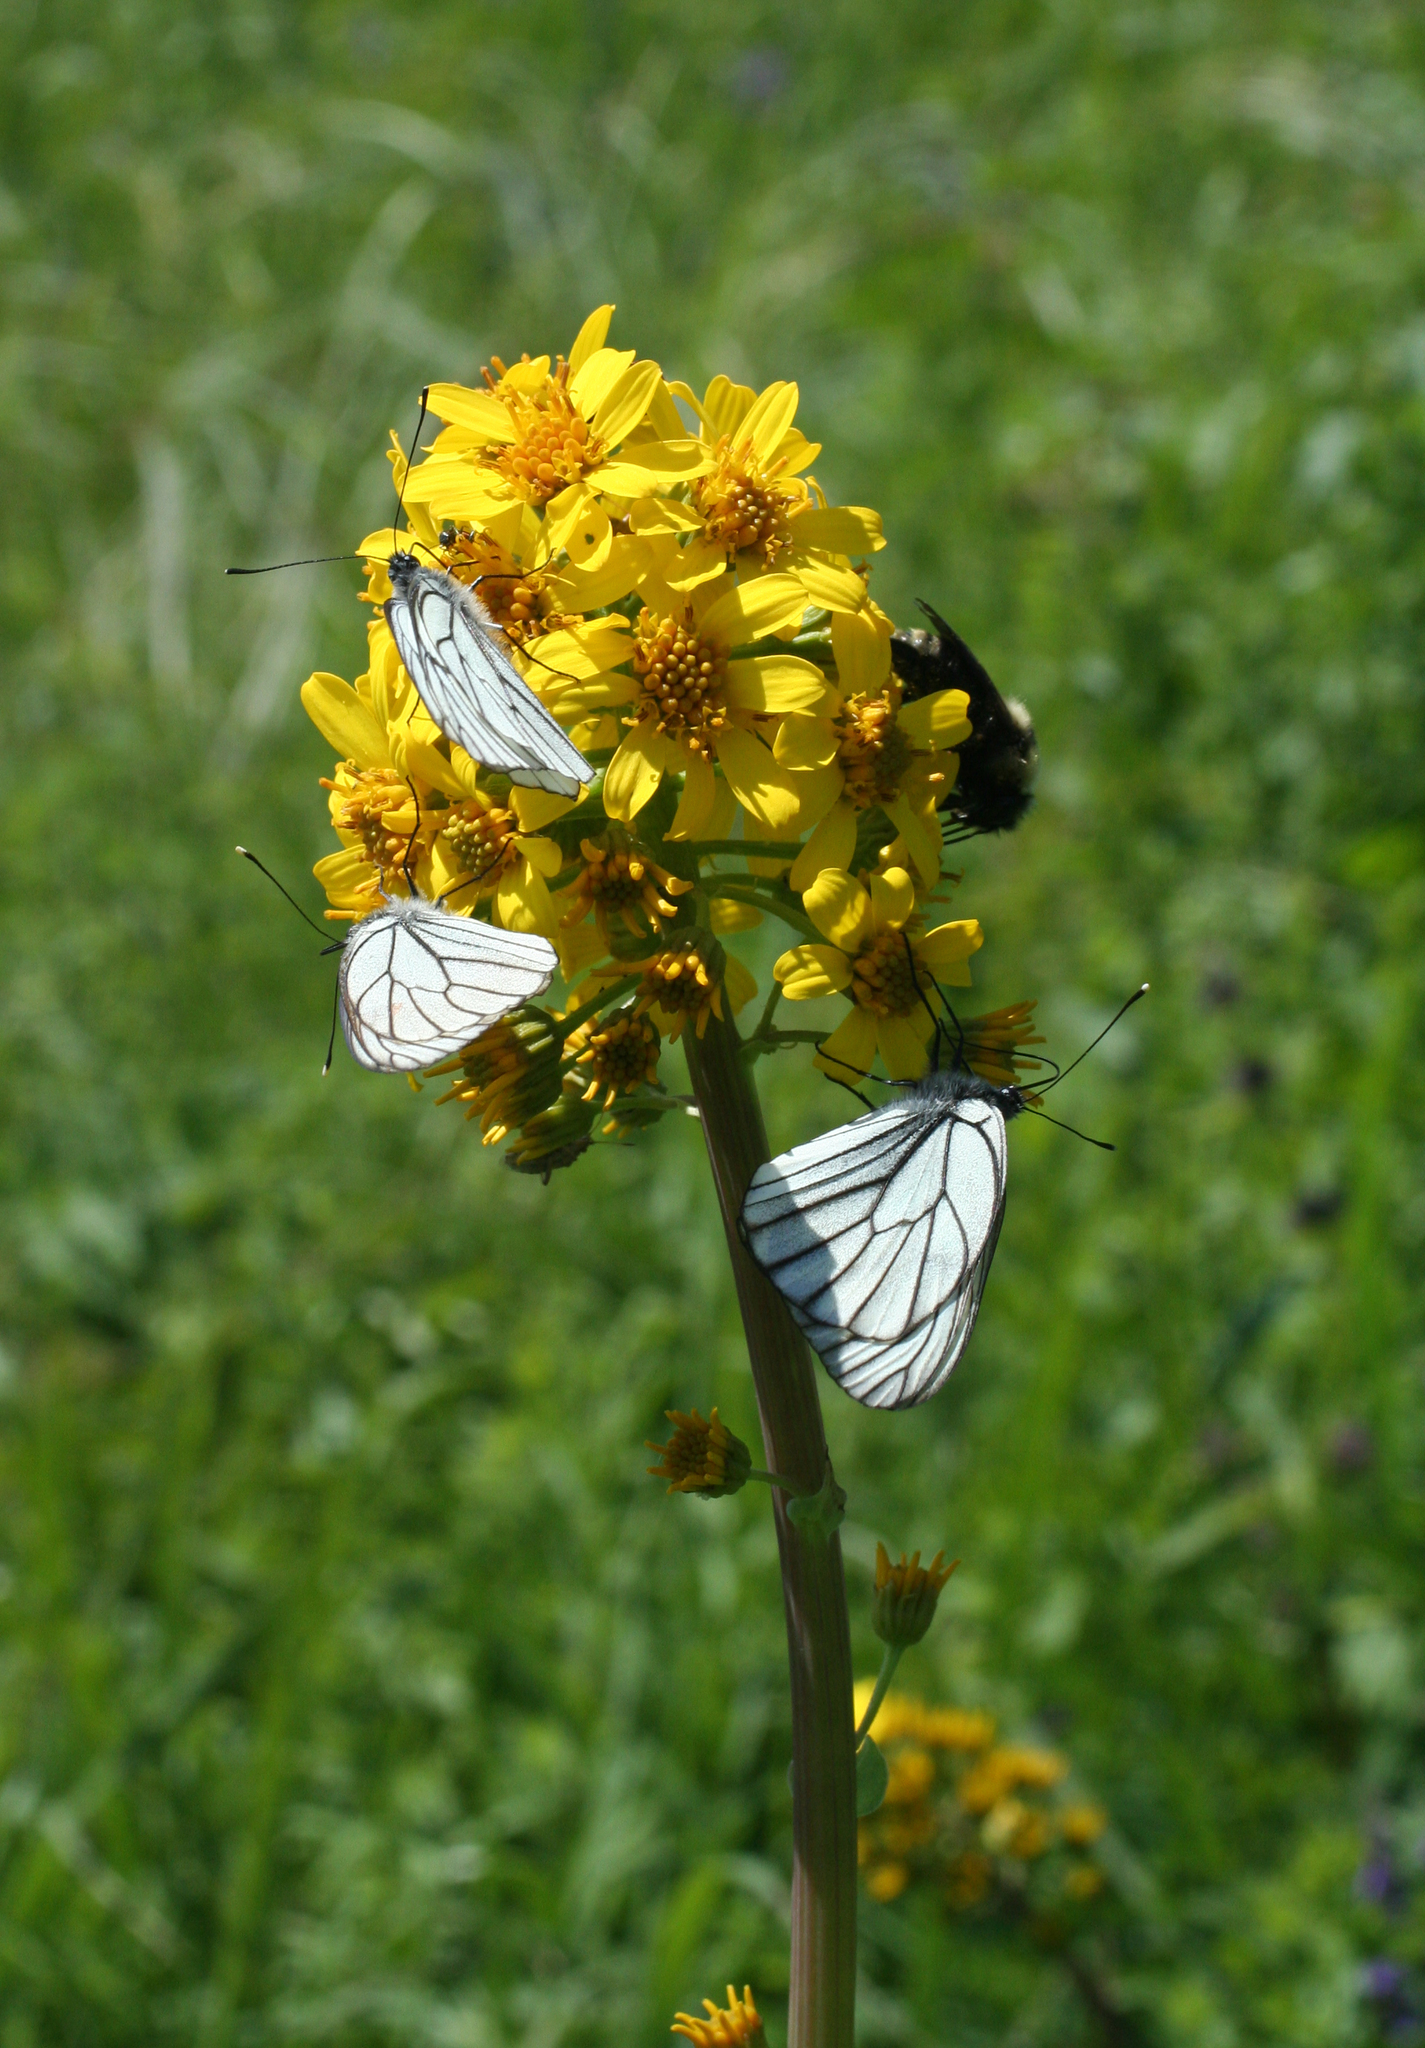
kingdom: Plantae
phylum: Tracheophyta
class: Magnoliopsida
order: Asterales
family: Asteraceae
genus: Ligularia
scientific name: Ligularia glauca
